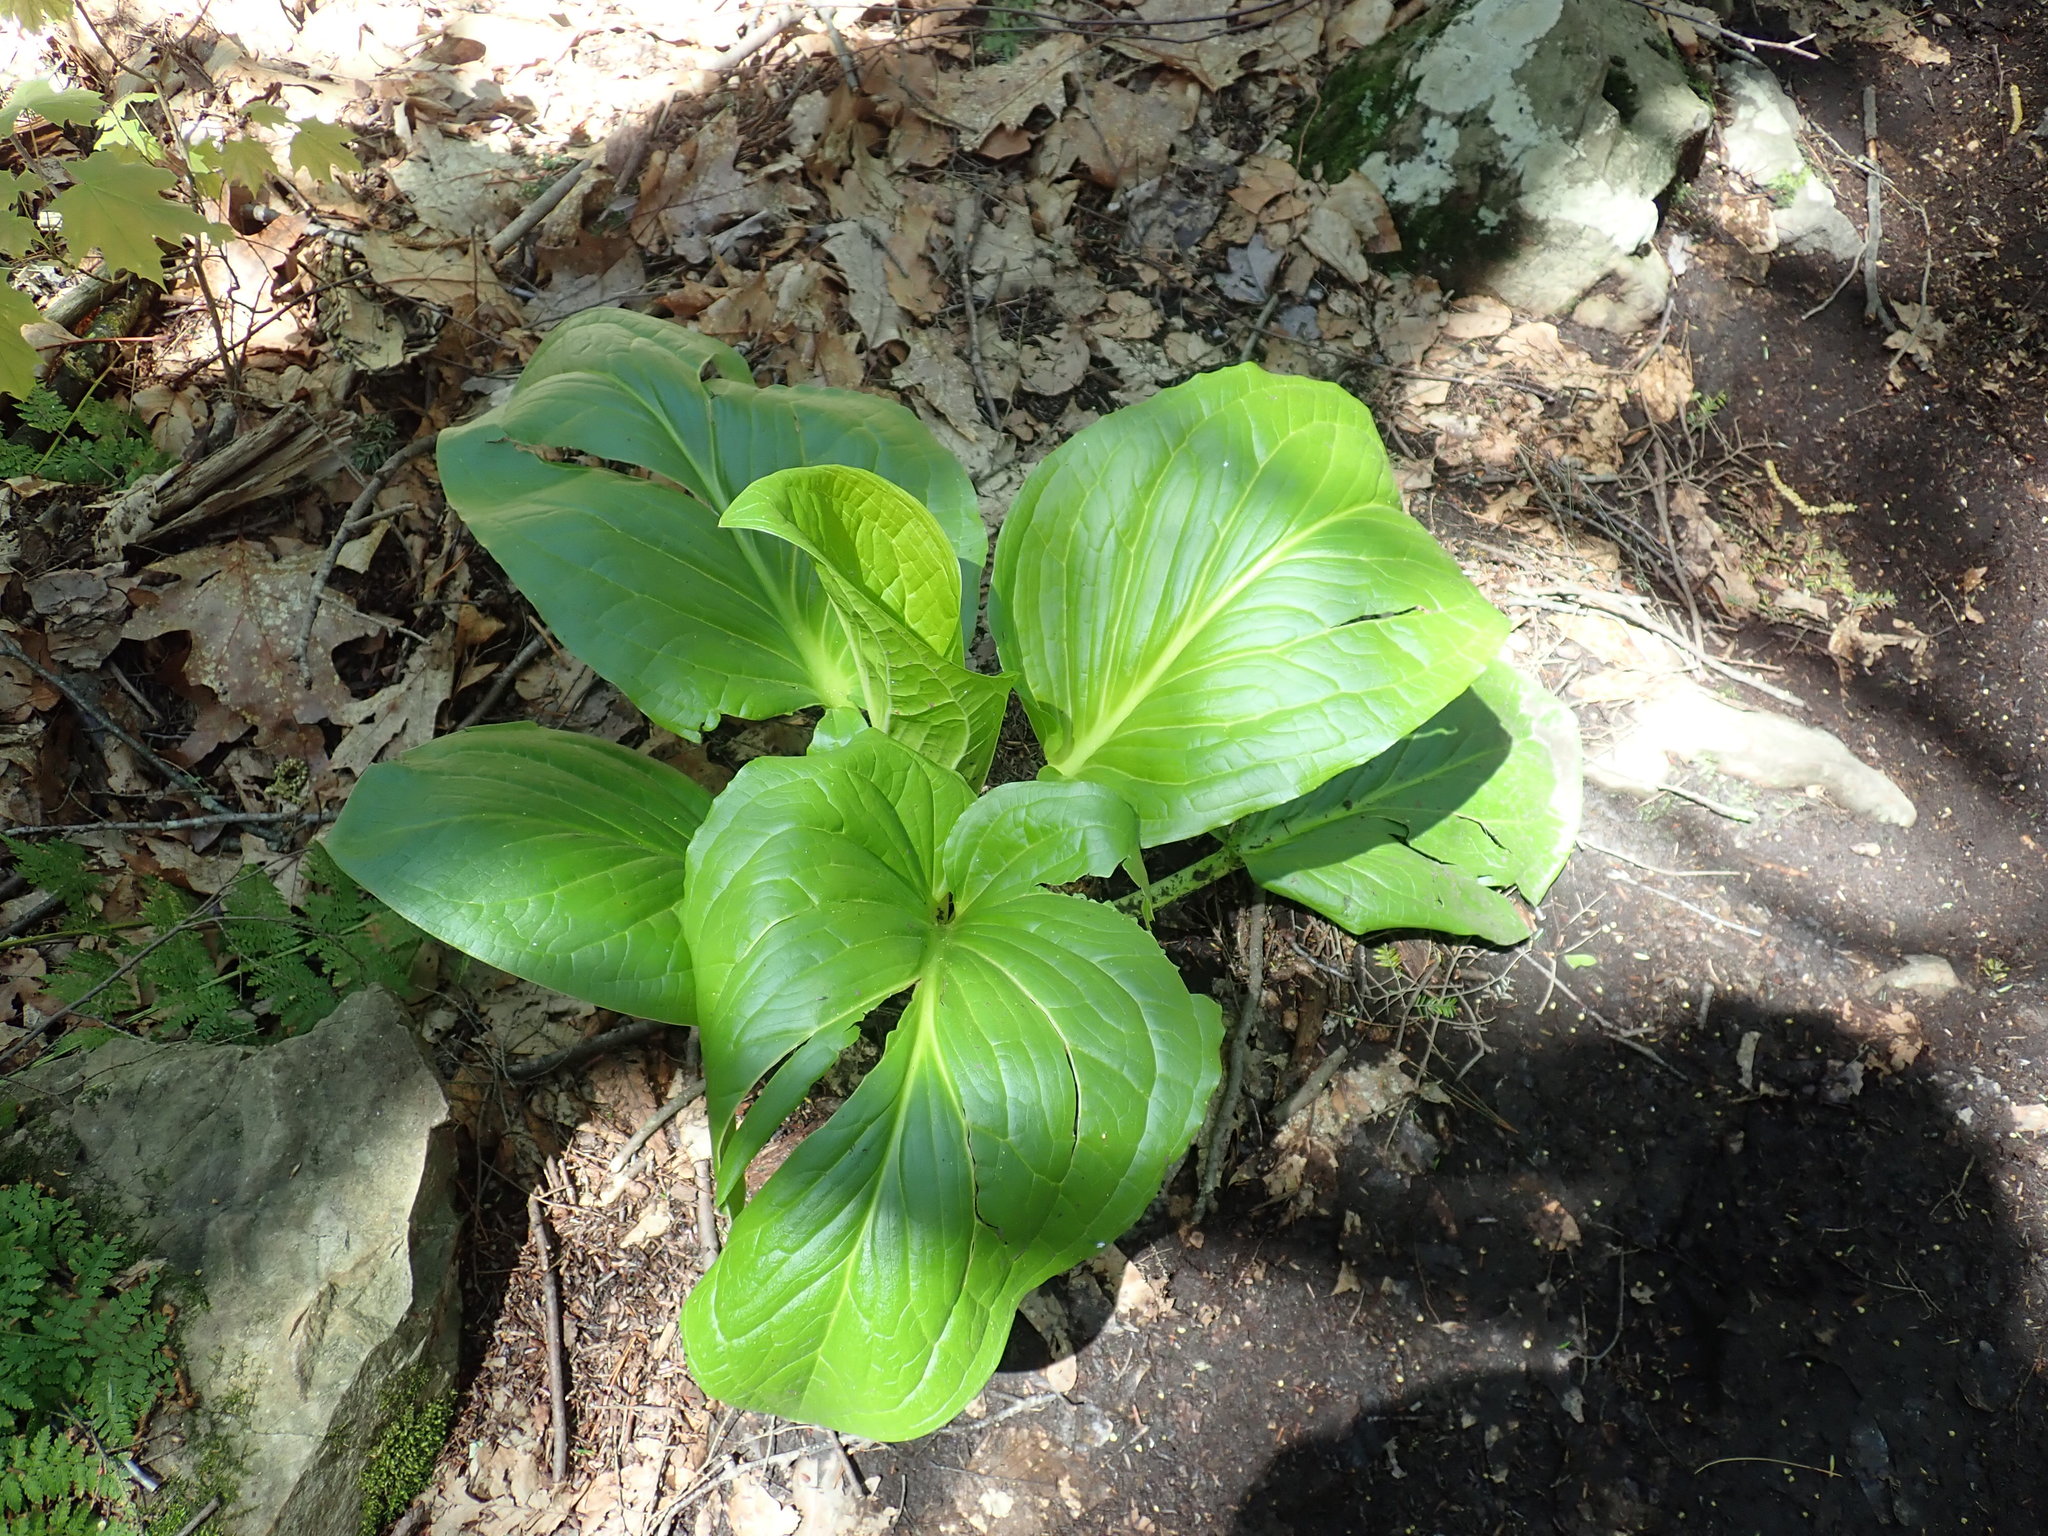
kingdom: Plantae
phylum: Tracheophyta
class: Liliopsida
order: Alismatales
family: Araceae
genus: Symplocarpus
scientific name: Symplocarpus foetidus
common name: Eastern skunk cabbage
